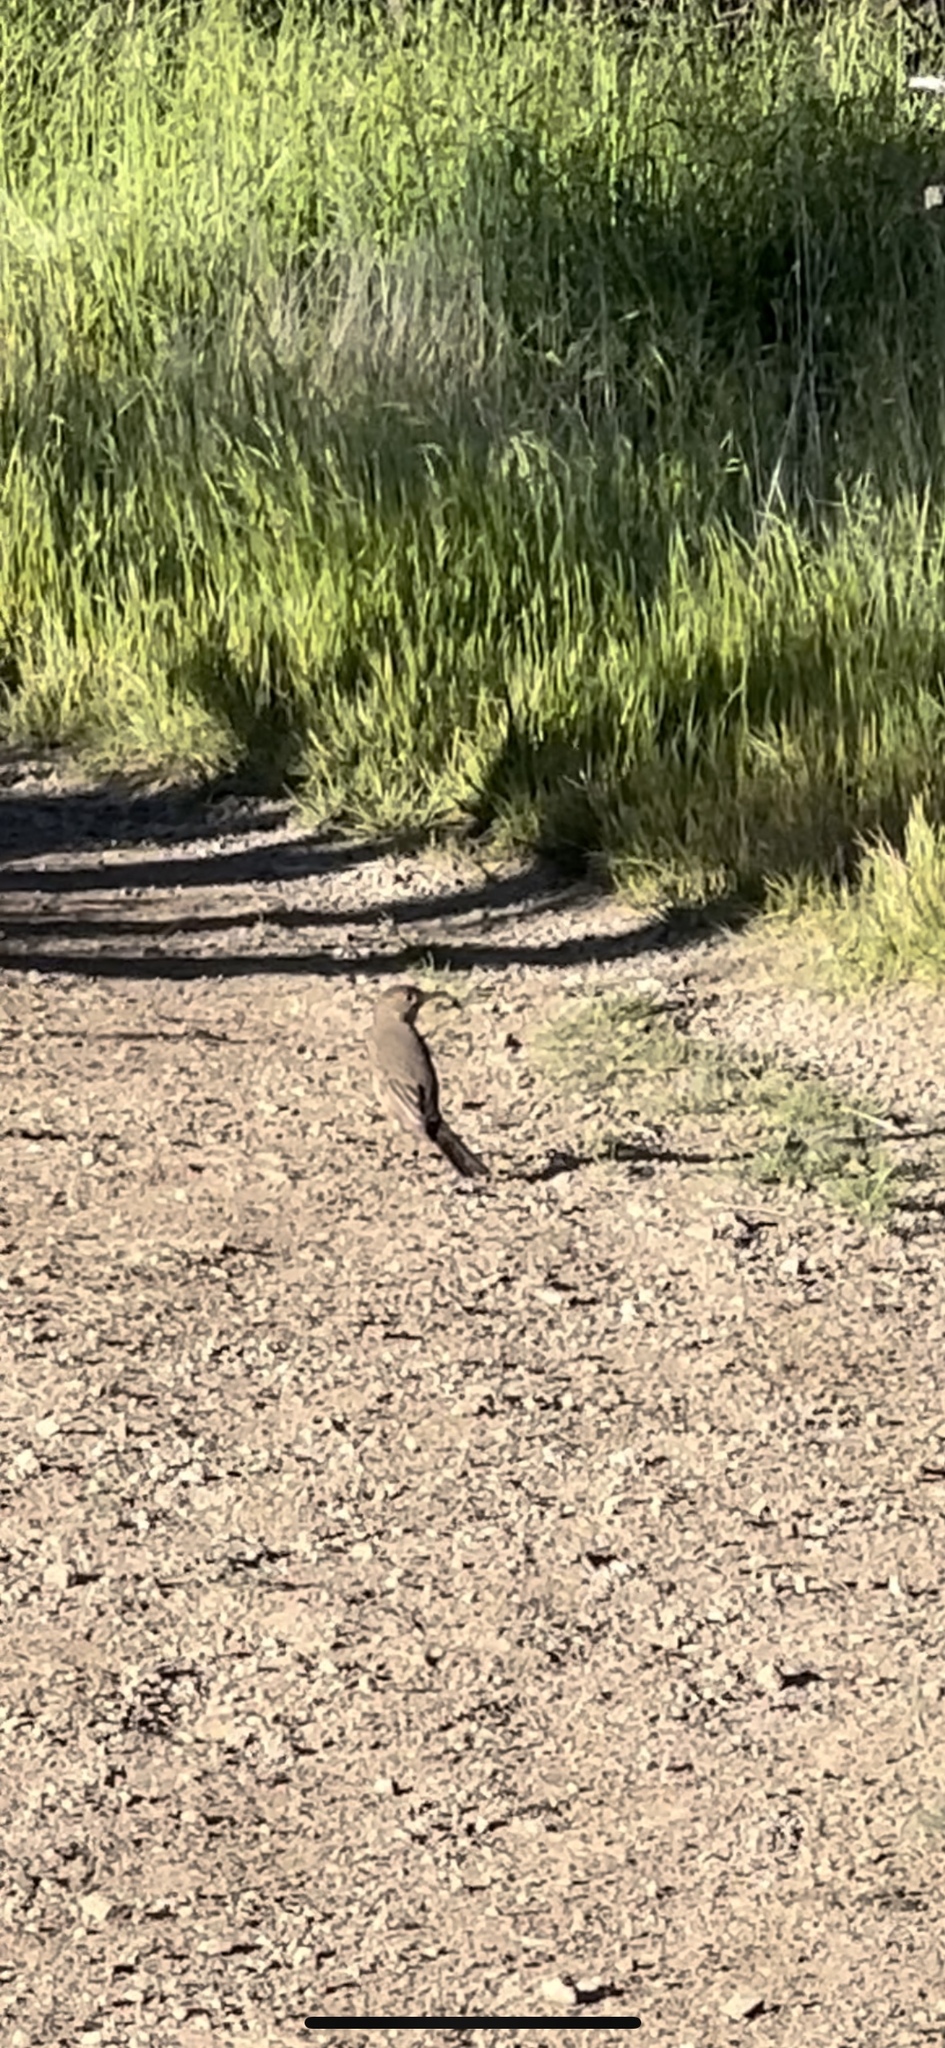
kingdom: Animalia
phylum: Chordata
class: Aves
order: Passeriformes
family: Tyrannidae
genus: Agriornis
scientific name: Agriornis lividus
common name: Great shrike-tyrant
